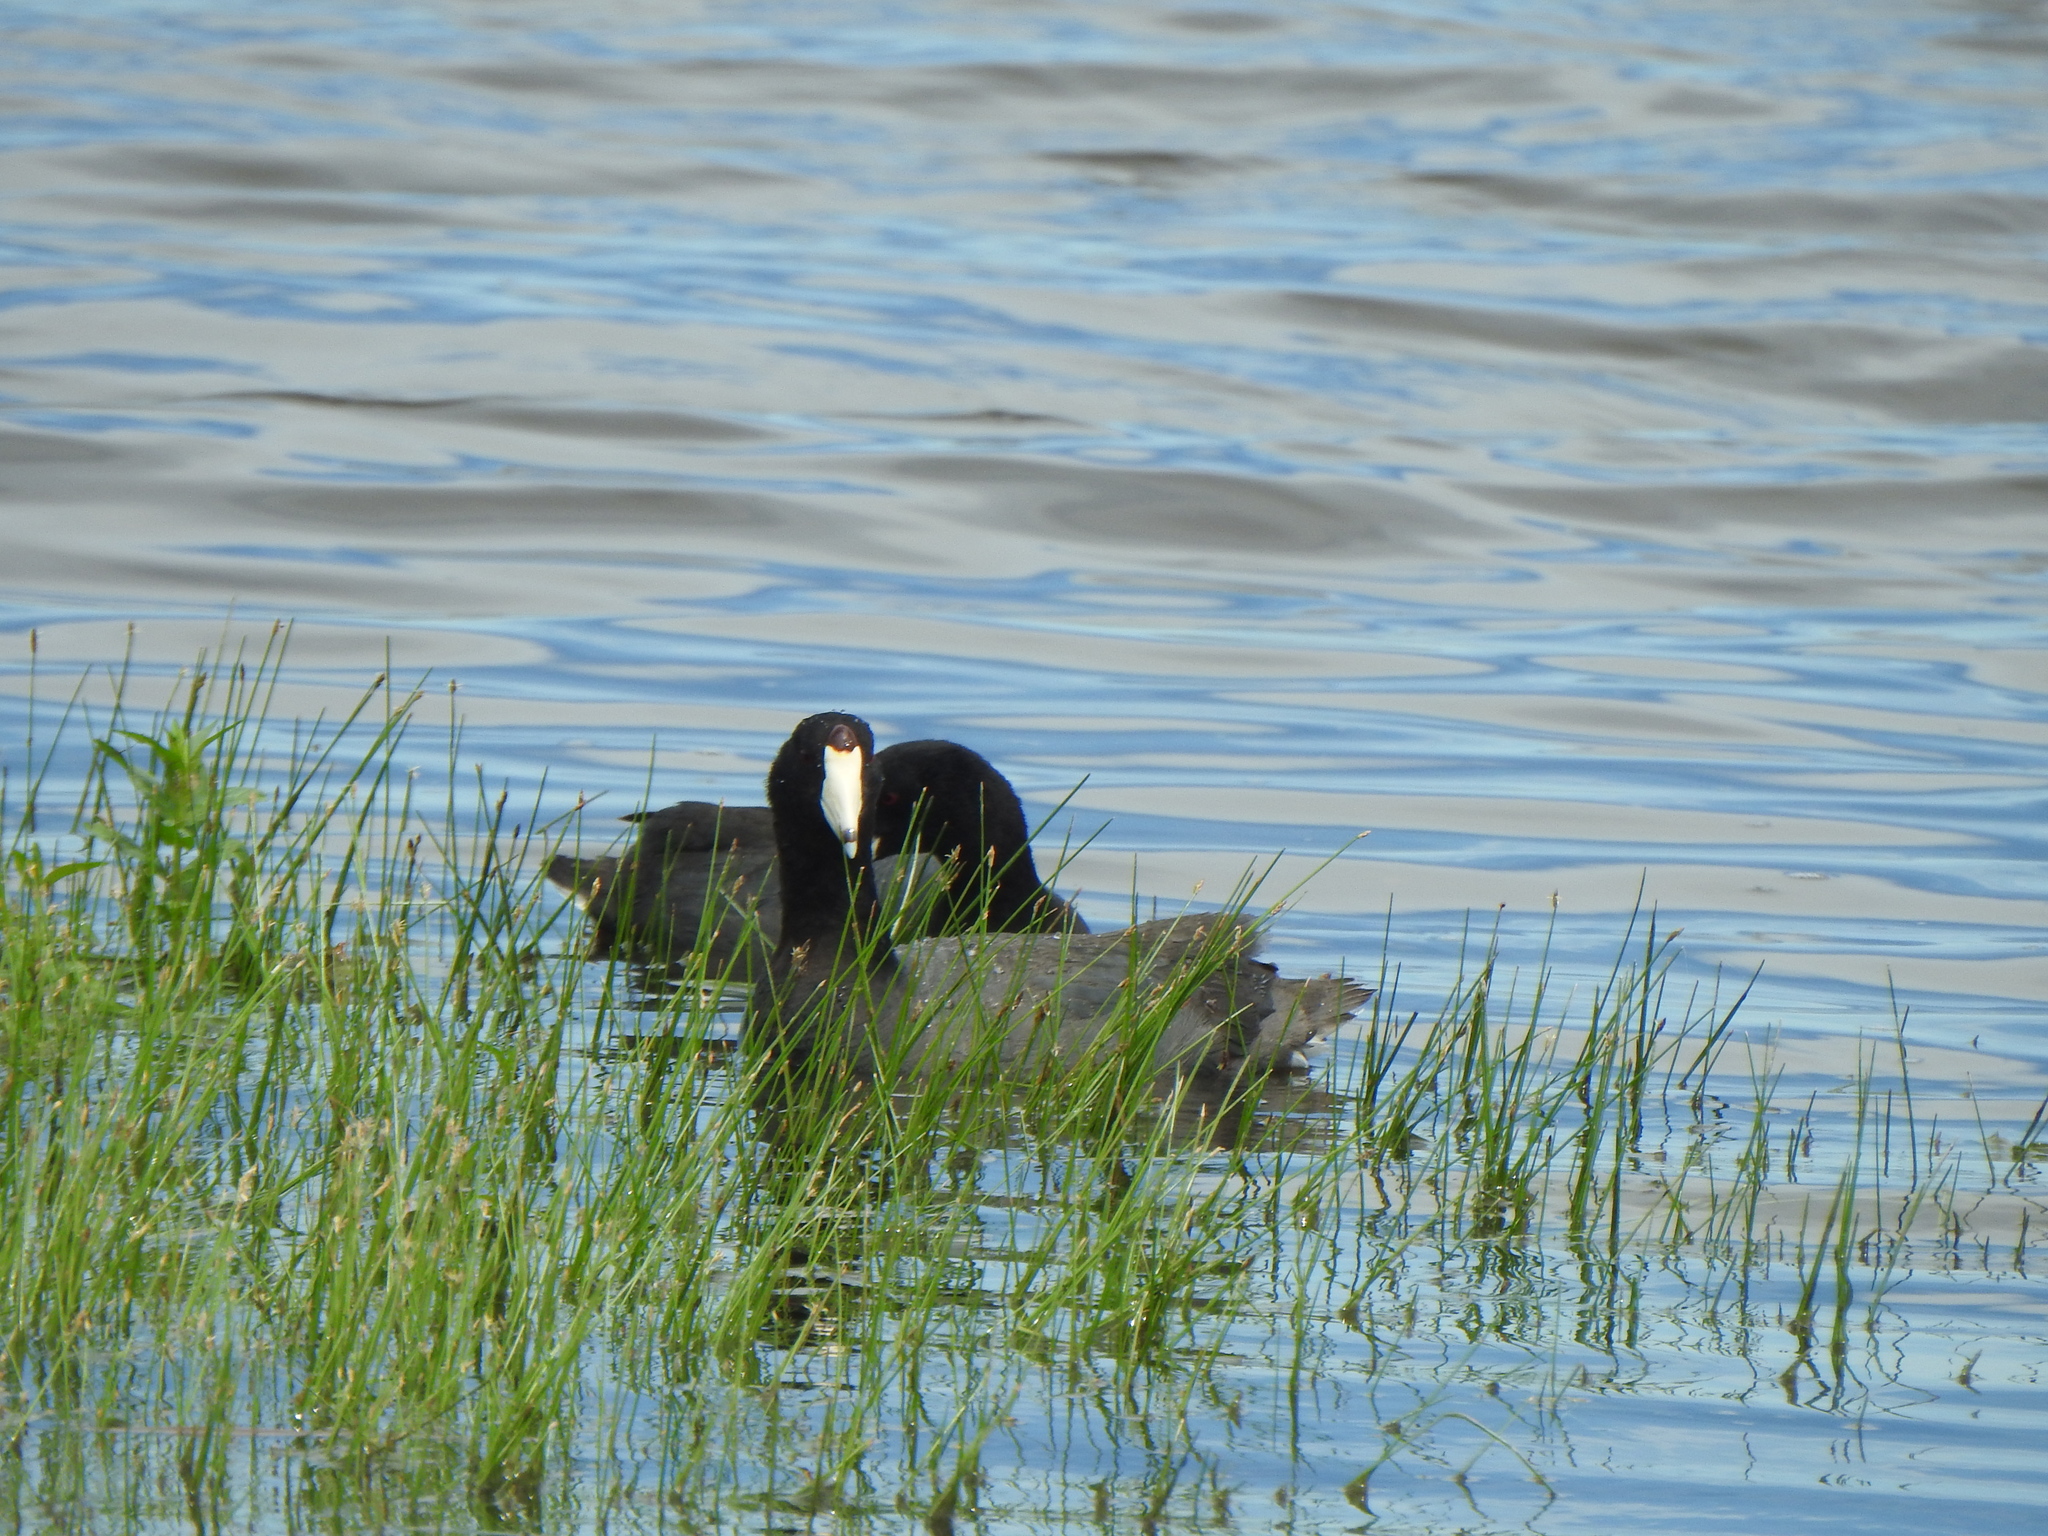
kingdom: Animalia
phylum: Chordata
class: Aves
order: Gruiformes
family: Rallidae
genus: Fulica
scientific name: Fulica americana
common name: American coot
